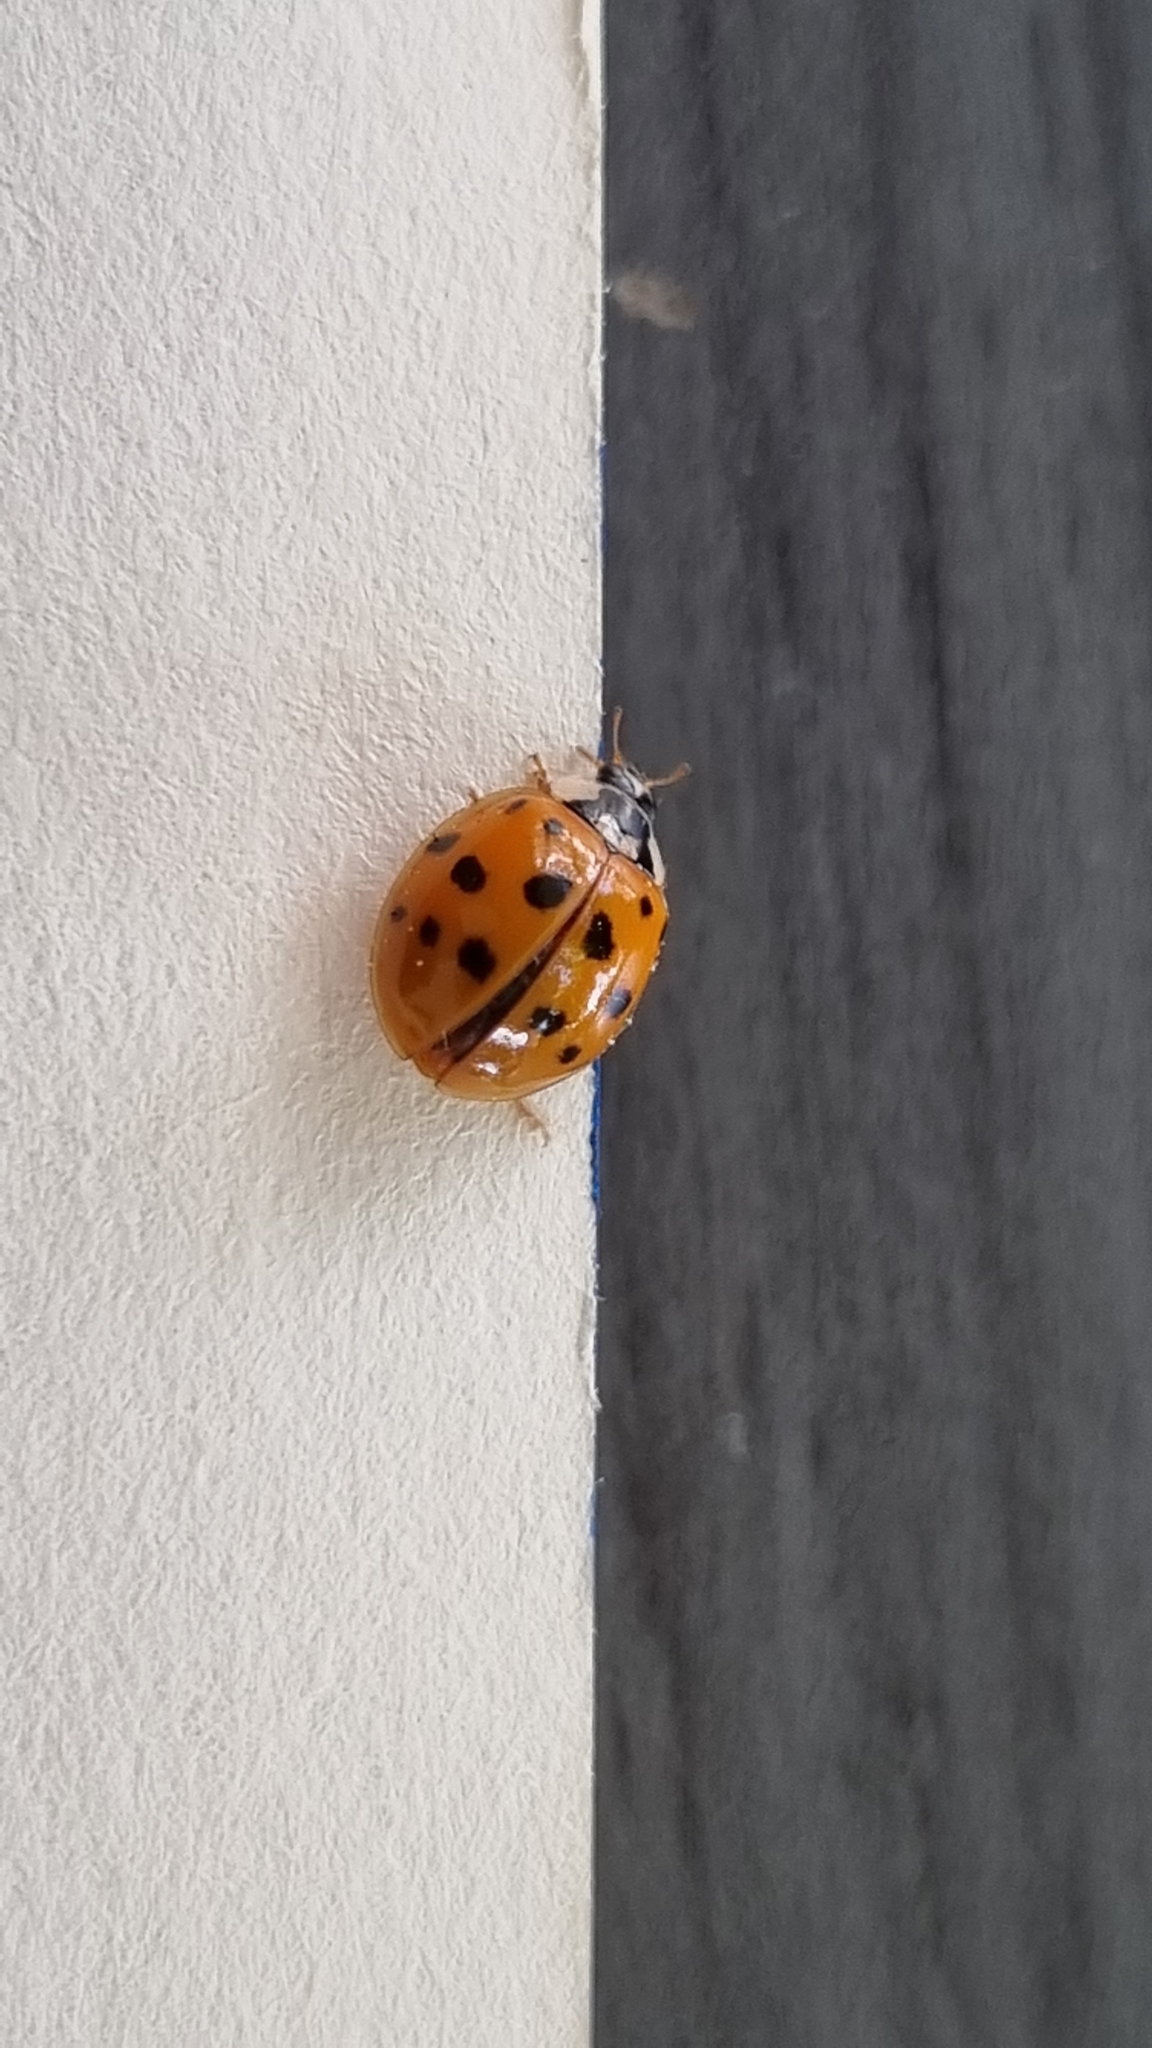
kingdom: Animalia
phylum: Arthropoda
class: Insecta
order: Coleoptera
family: Coccinellidae
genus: Harmonia
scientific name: Harmonia axyridis
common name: Harlequin ladybird
